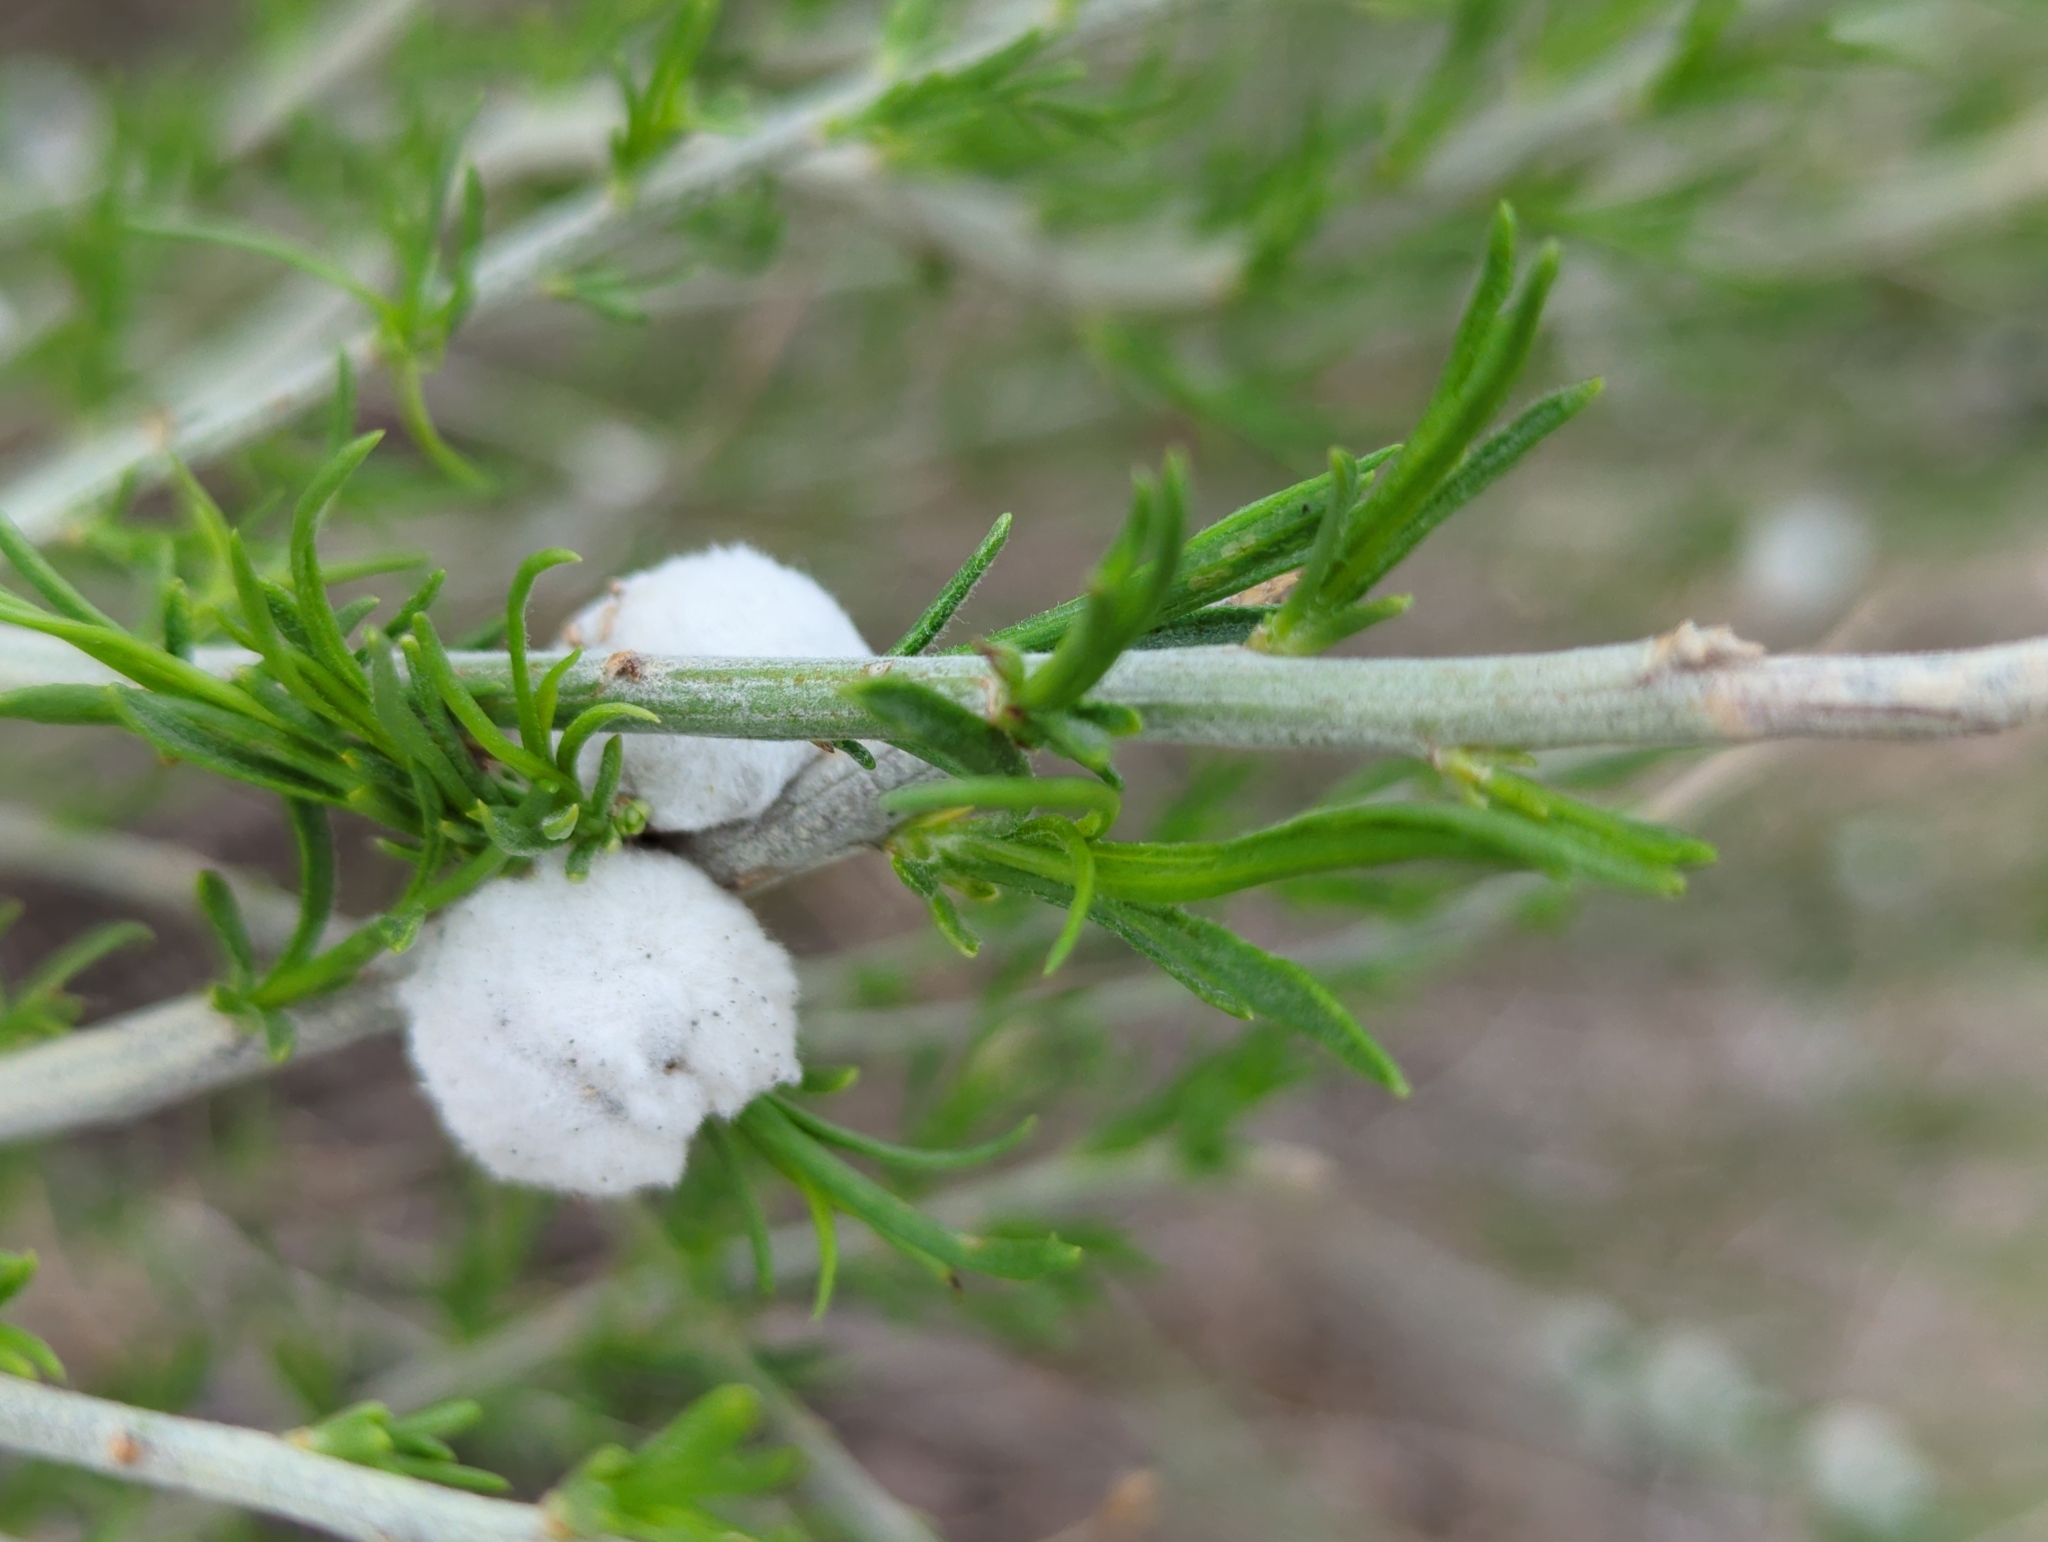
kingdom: Animalia
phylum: Arthropoda
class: Insecta
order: Diptera
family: Tephritidae
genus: Aciurina
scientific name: Aciurina bigeloviae
